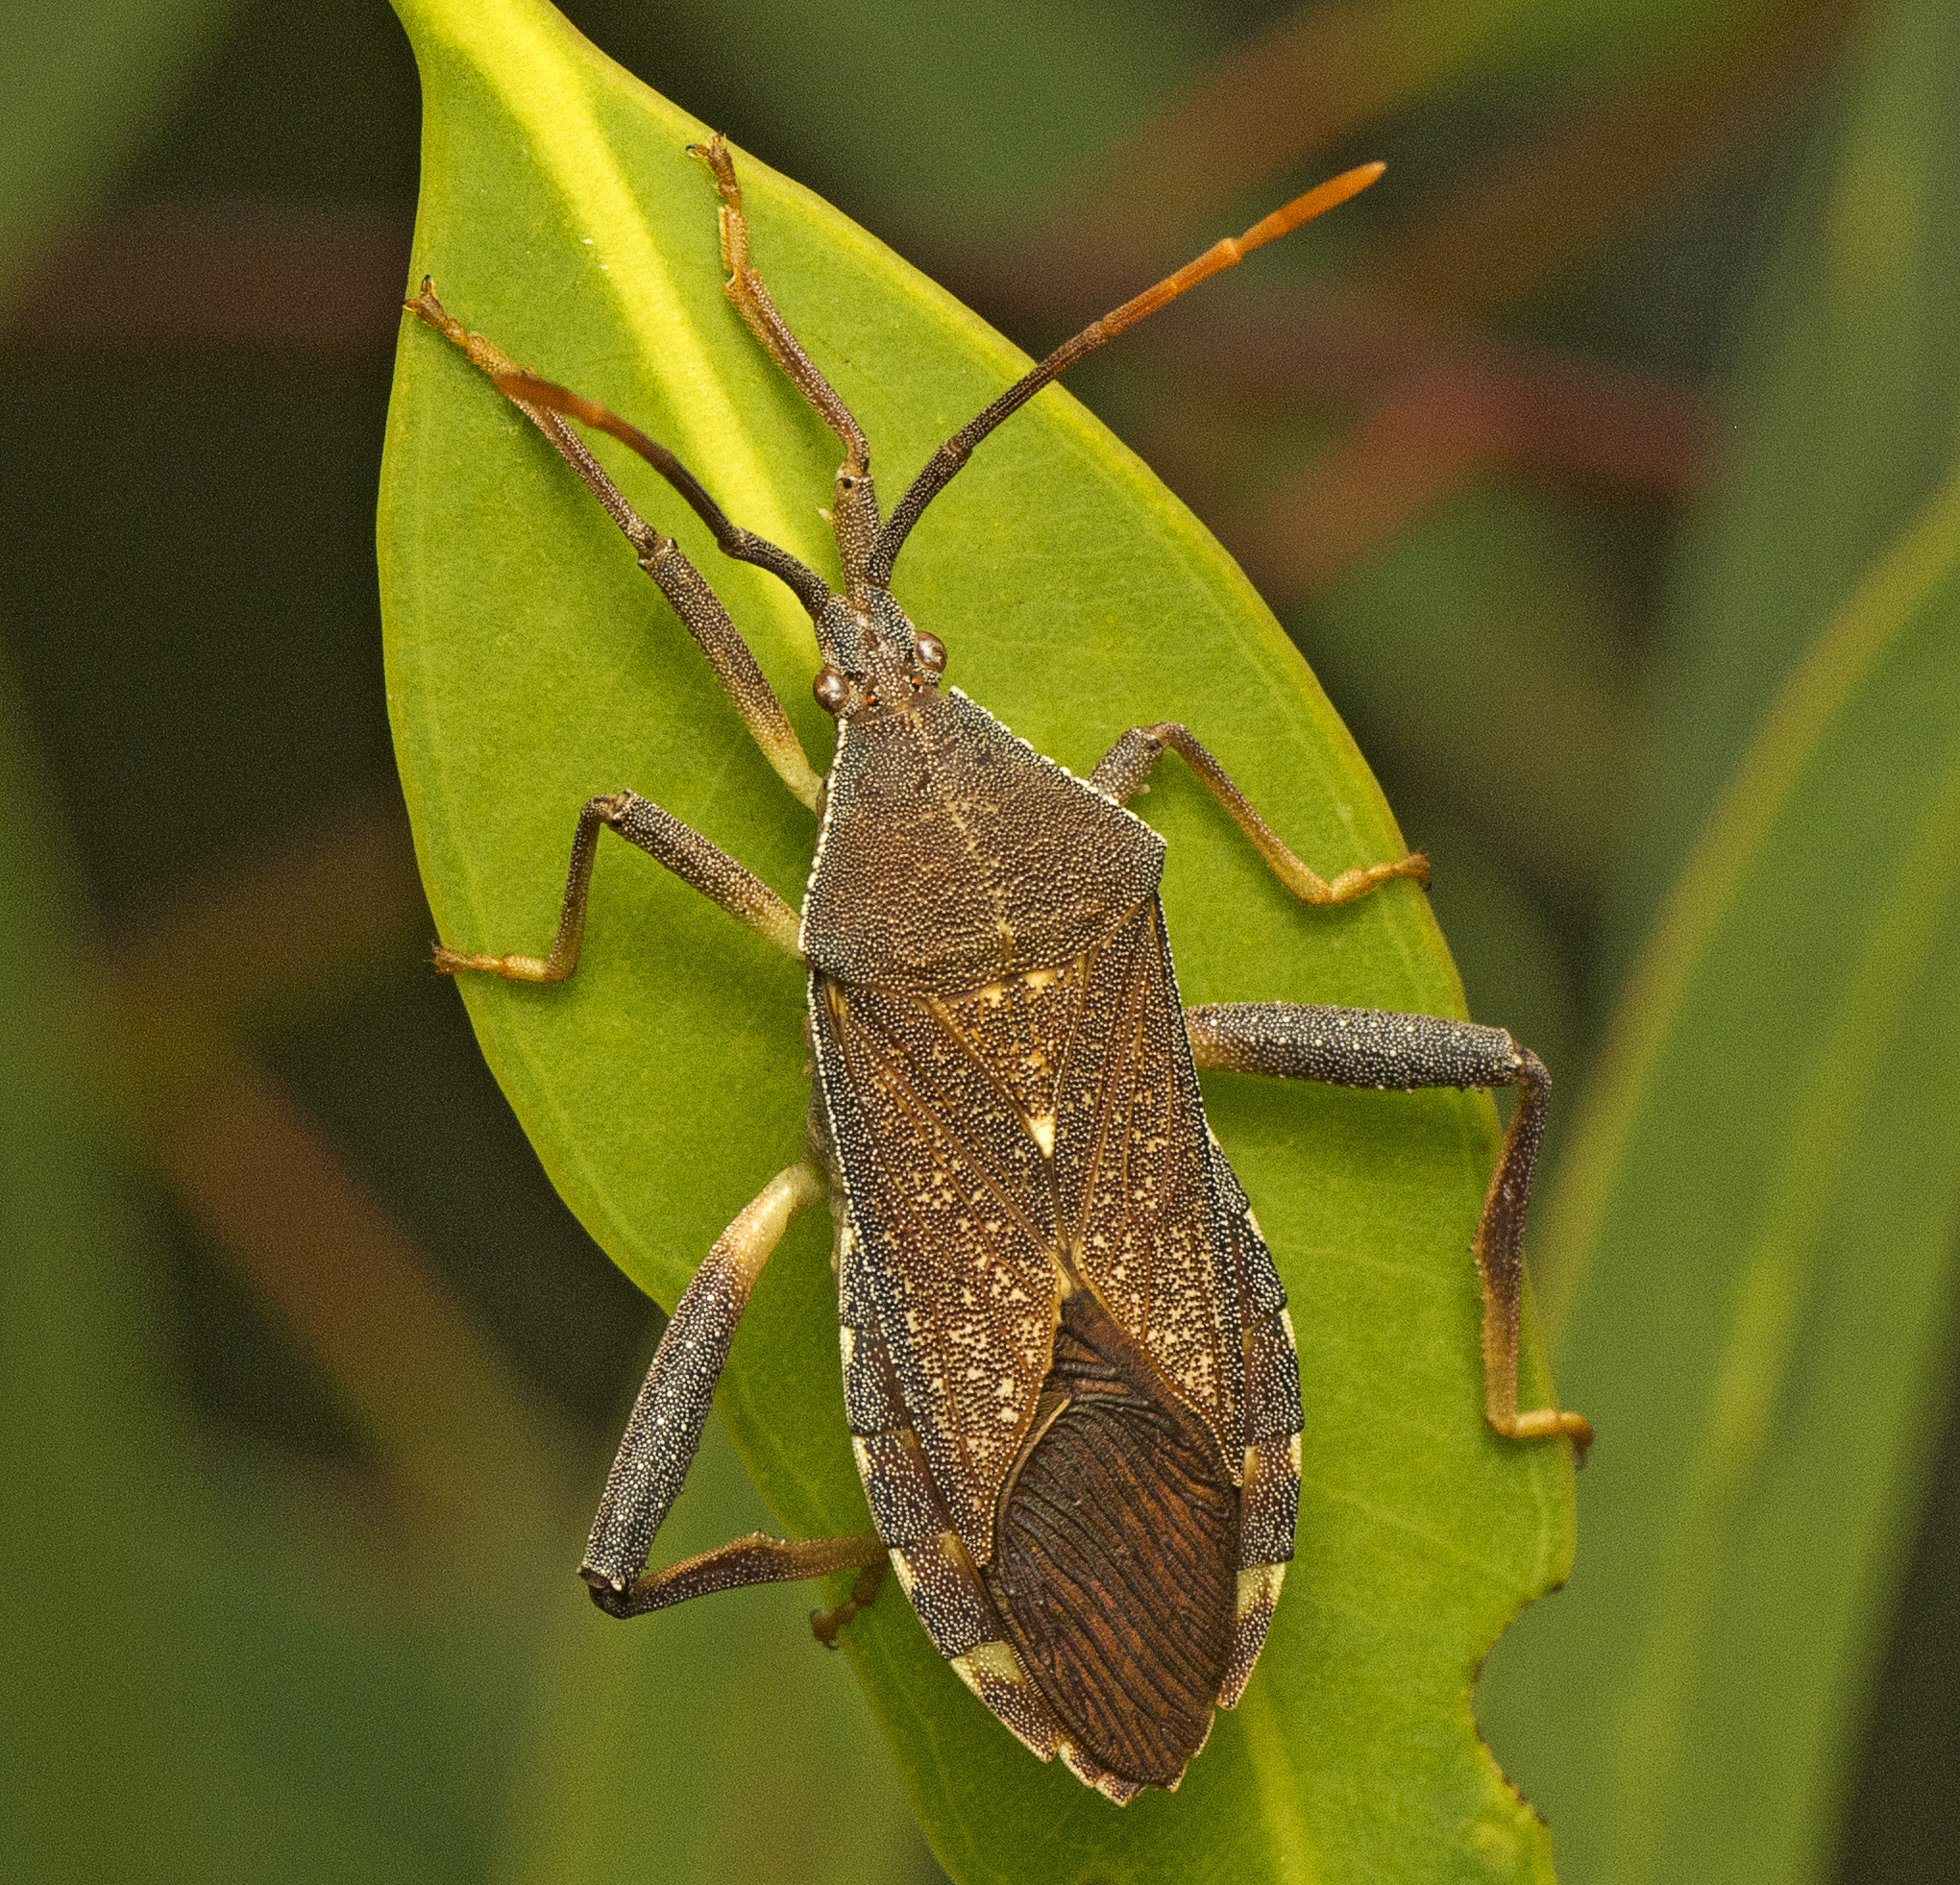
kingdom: Animalia
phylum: Arthropoda
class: Insecta
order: Hemiptera
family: Coreidae
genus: Amorbus
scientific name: Amorbus alternatus
